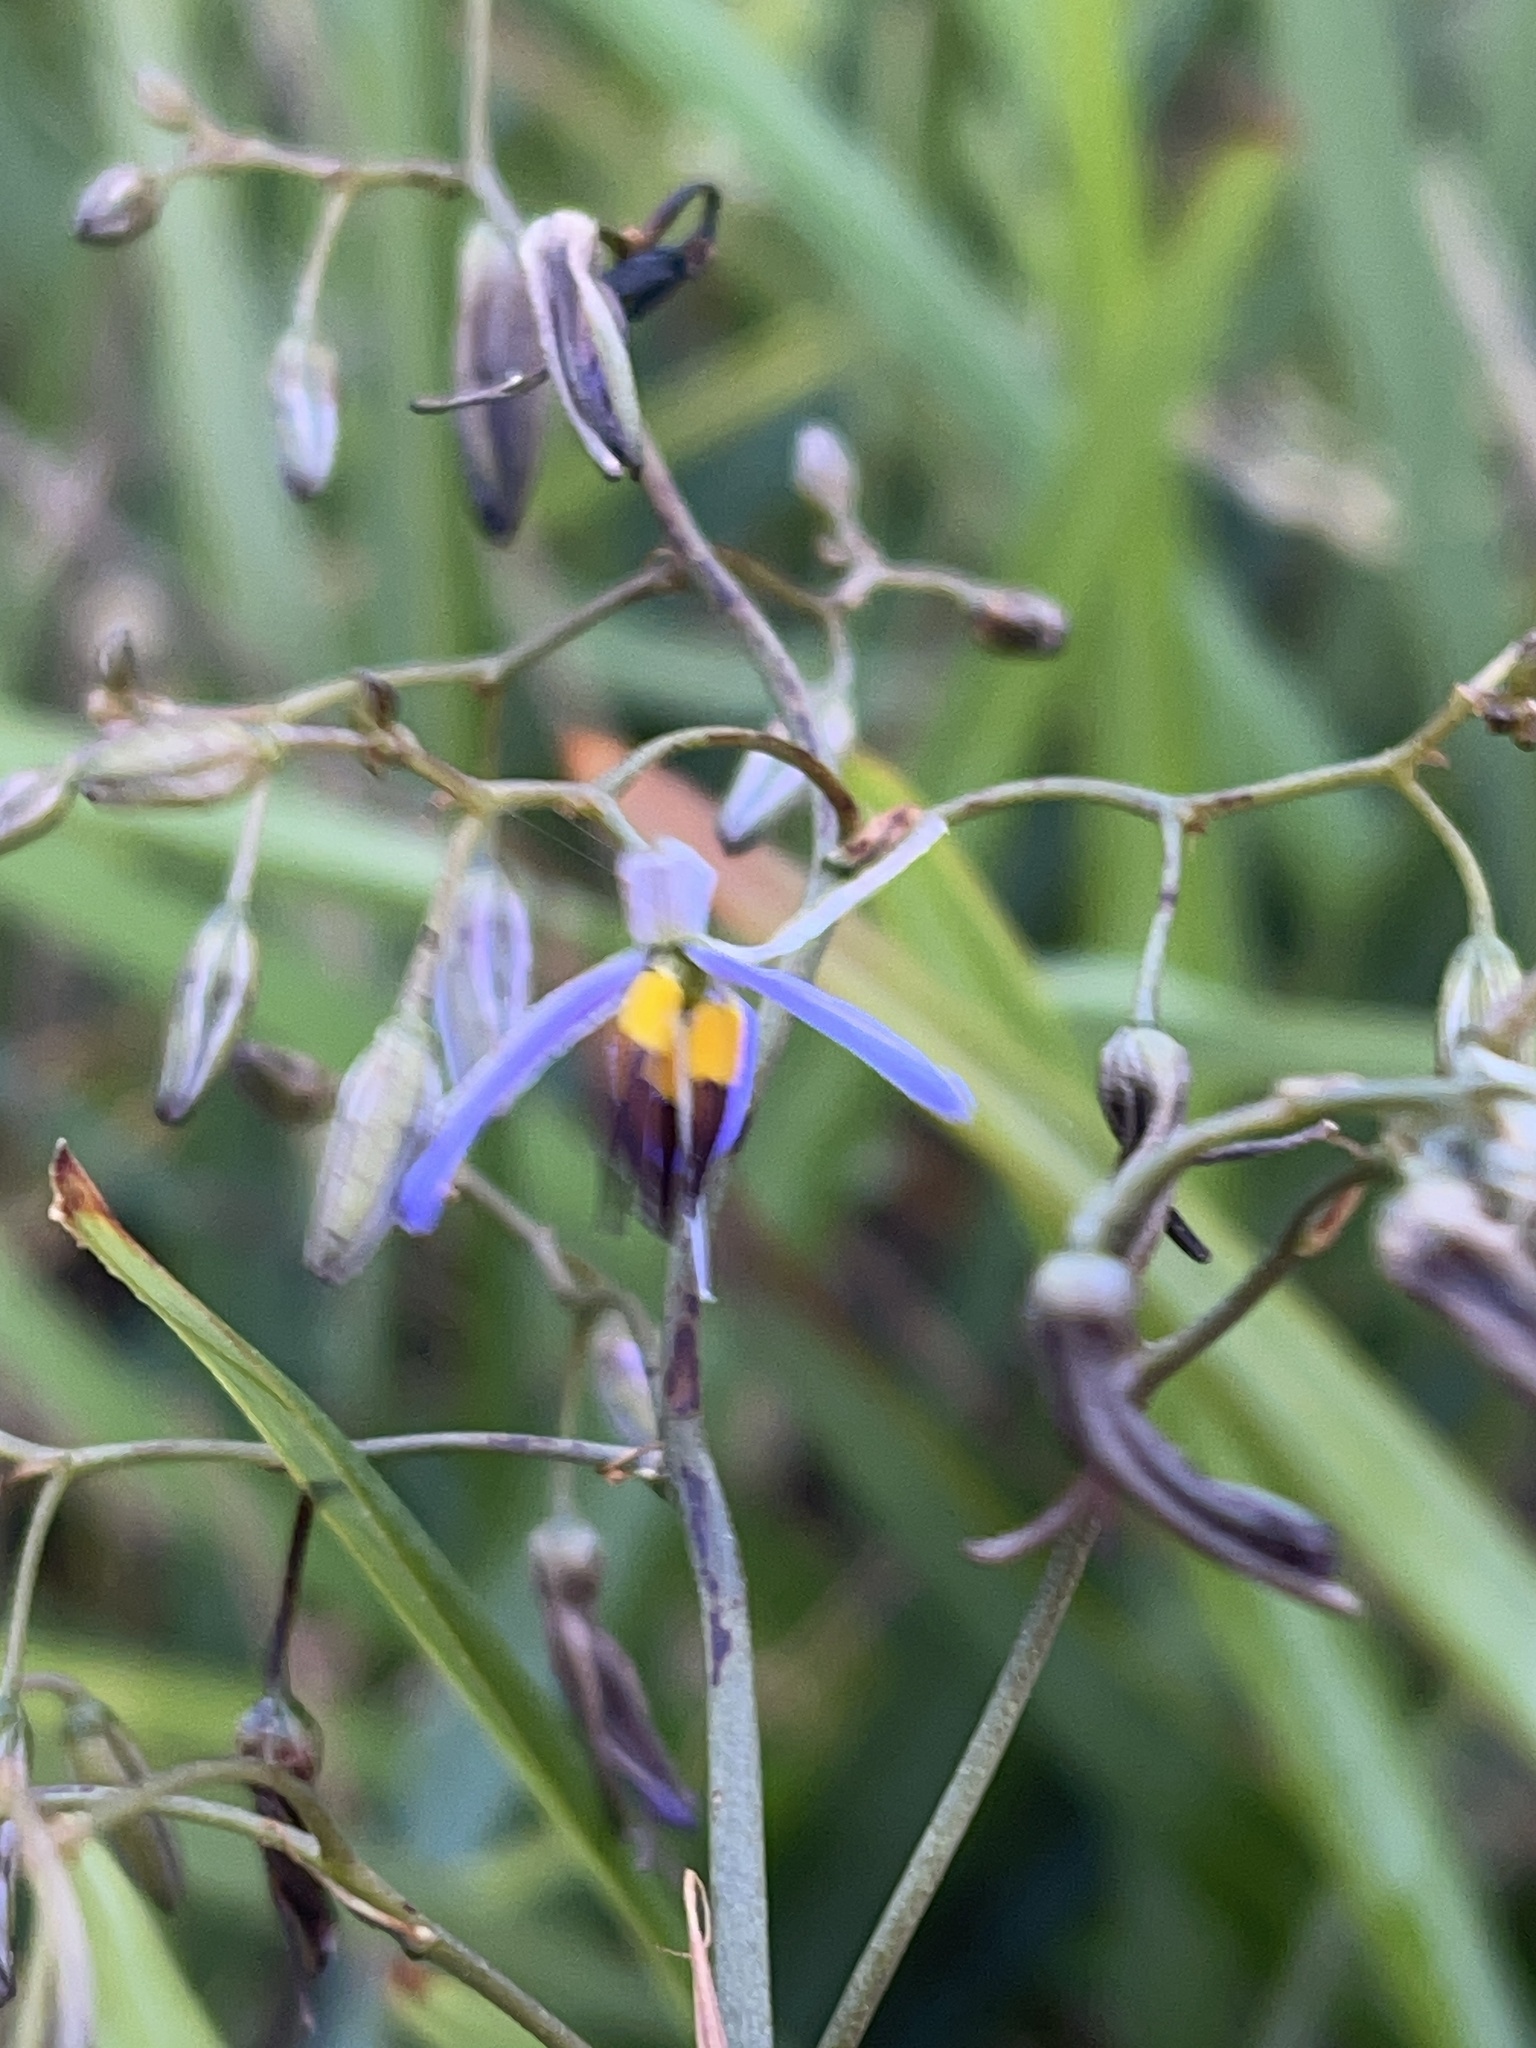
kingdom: Plantae
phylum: Tracheophyta
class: Liliopsida
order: Asparagales
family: Asphodelaceae
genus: Dianella
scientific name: Dianella revoluta
